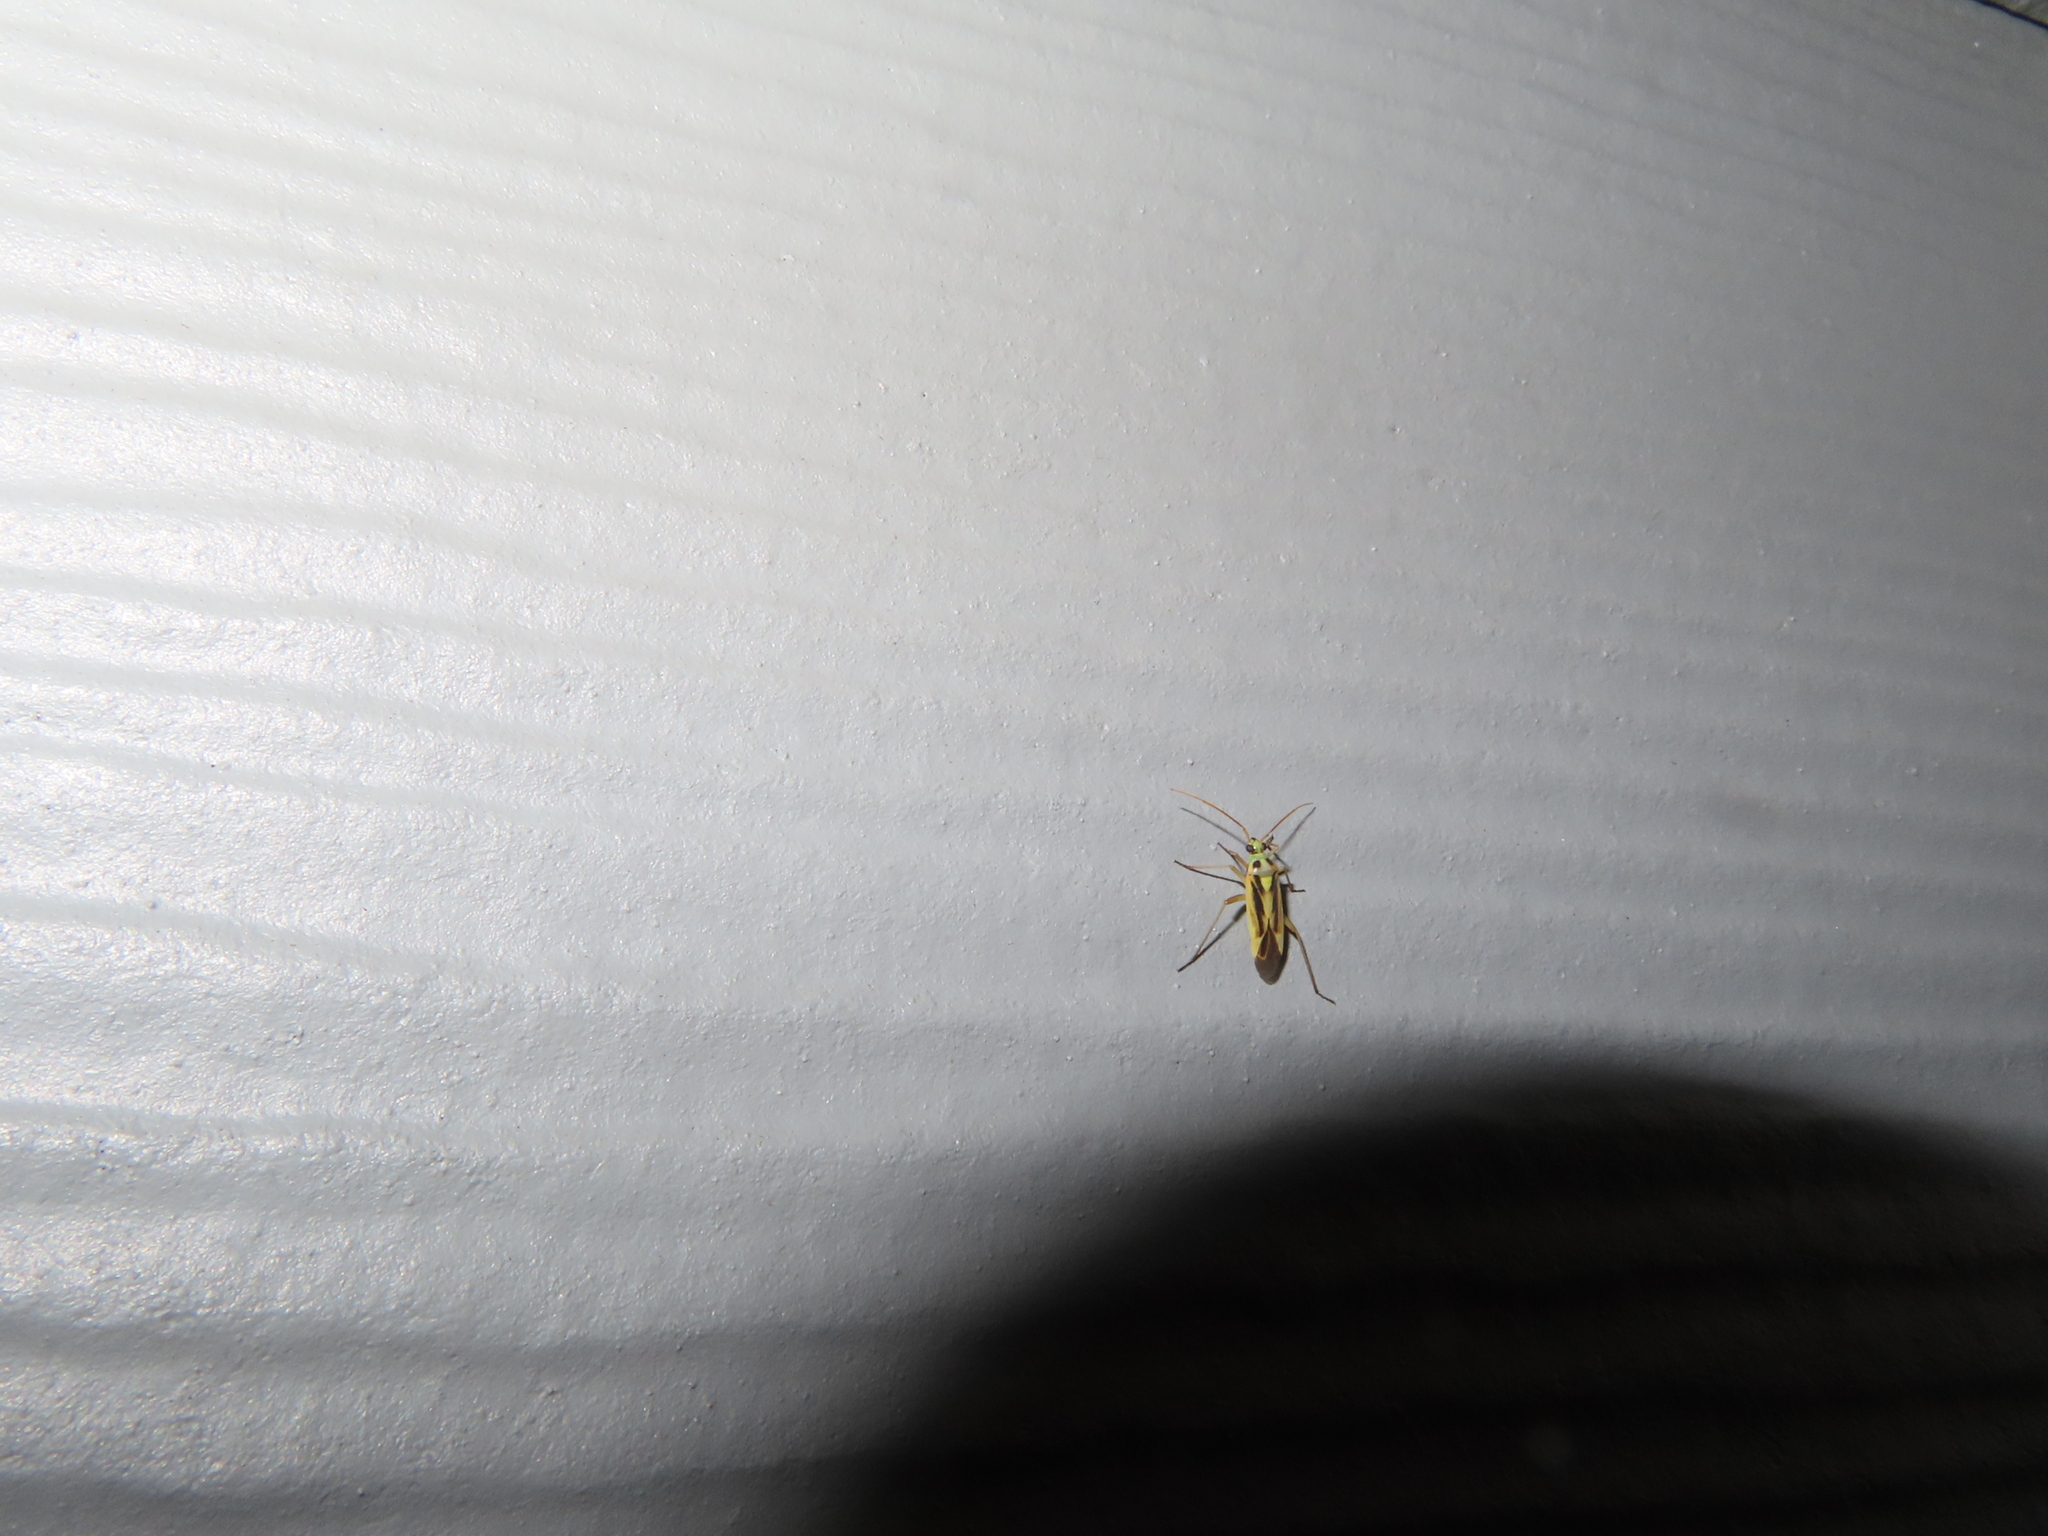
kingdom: Animalia
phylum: Arthropoda
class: Insecta
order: Hemiptera
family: Miridae
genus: Stenotus
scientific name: Stenotus binotatus
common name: Plant bug
